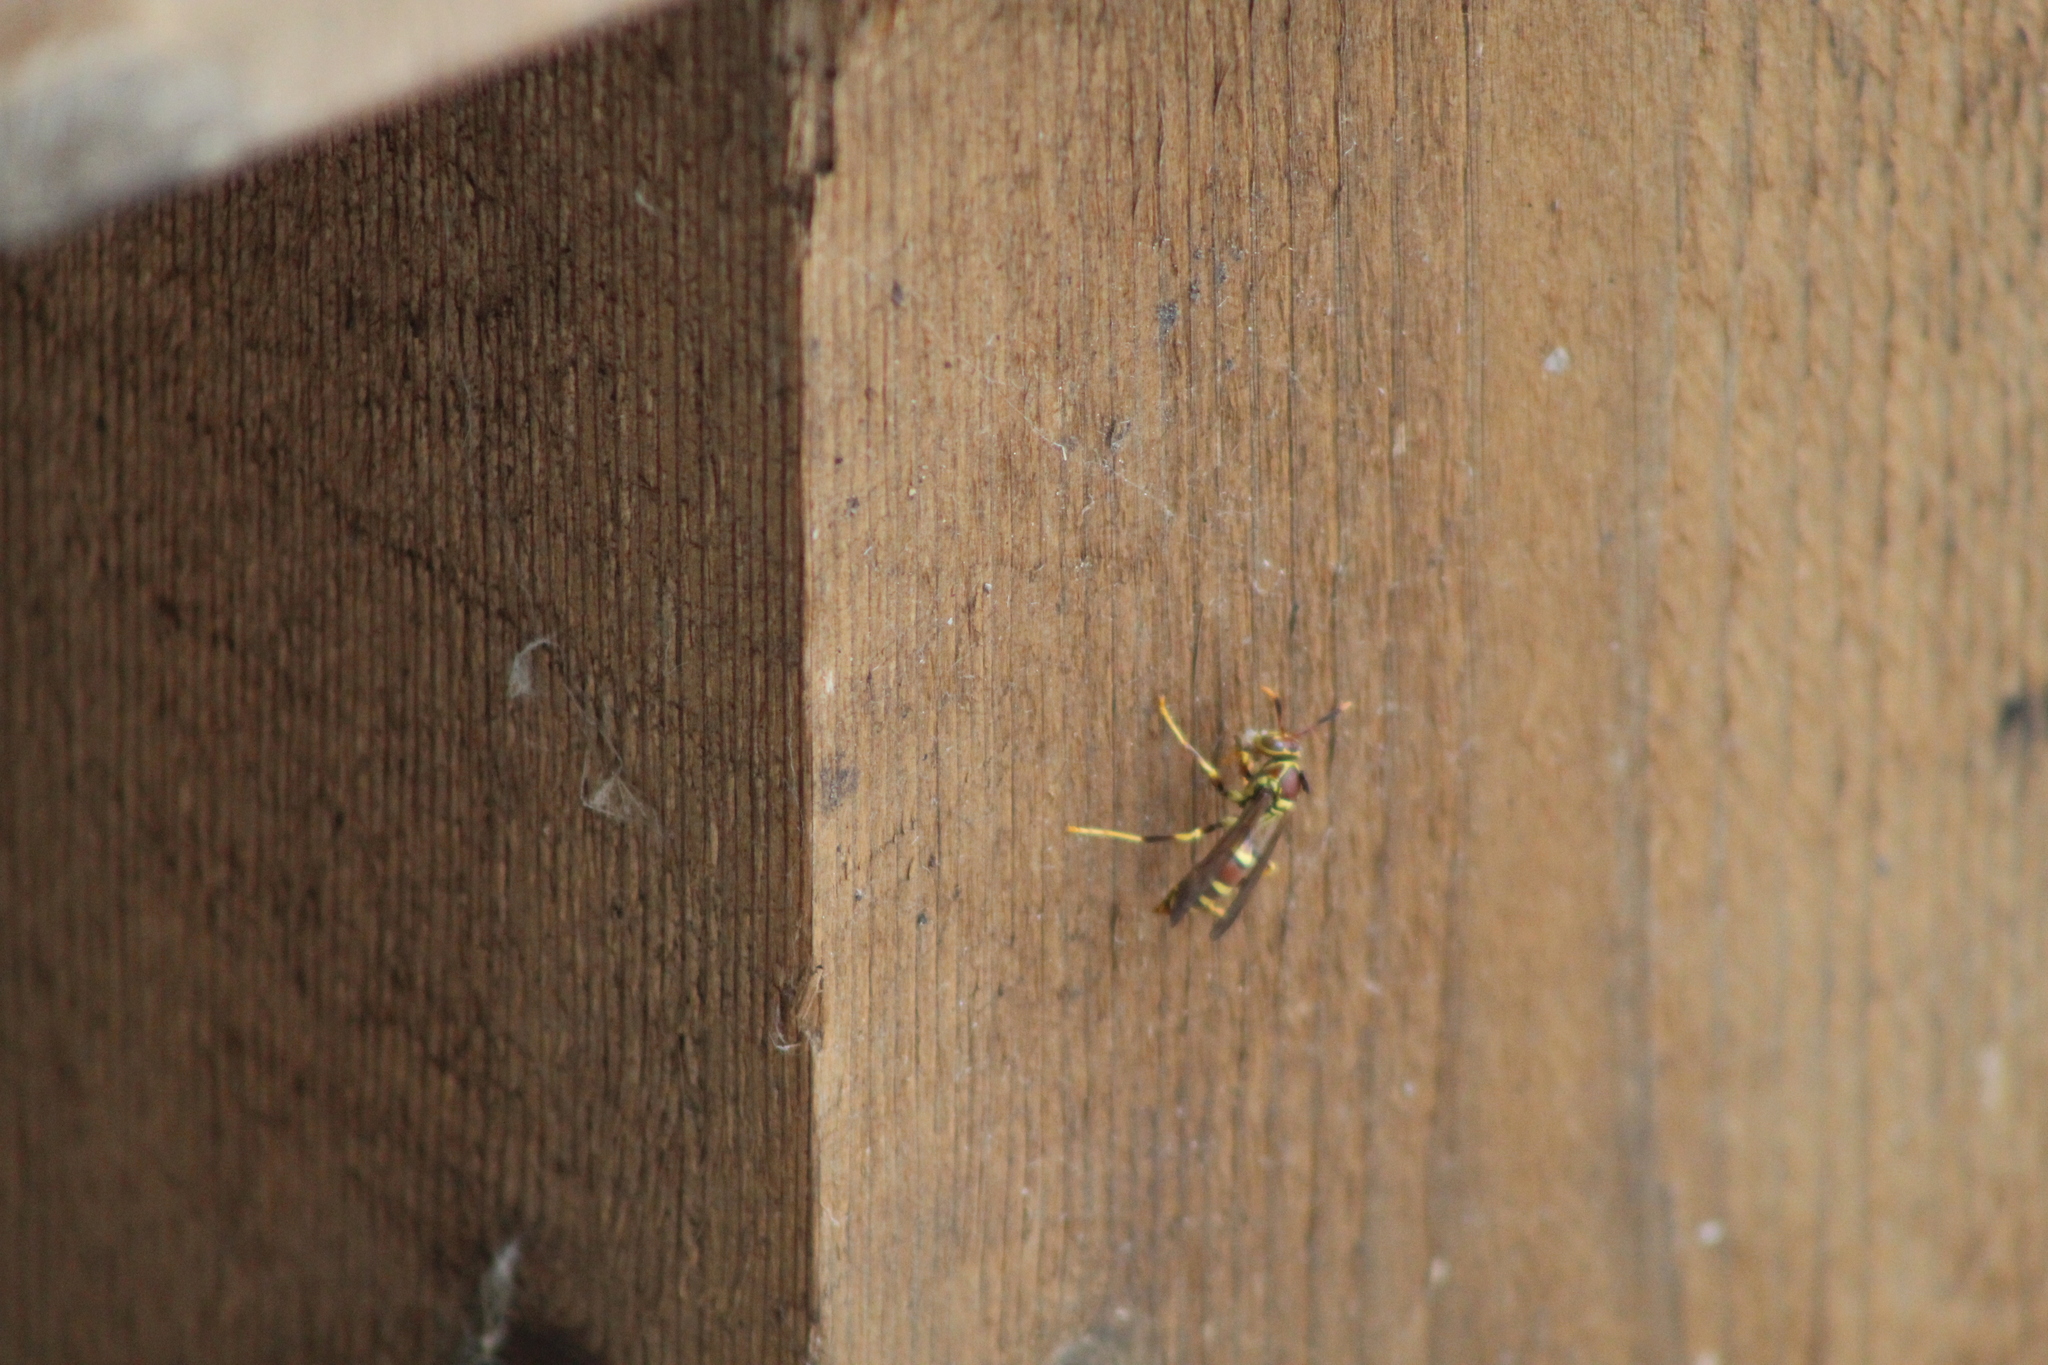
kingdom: Animalia
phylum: Arthropoda
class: Insecta
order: Hymenoptera
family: Eumenidae
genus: Polistes
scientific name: Polistes exclamans
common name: Paper wasp
